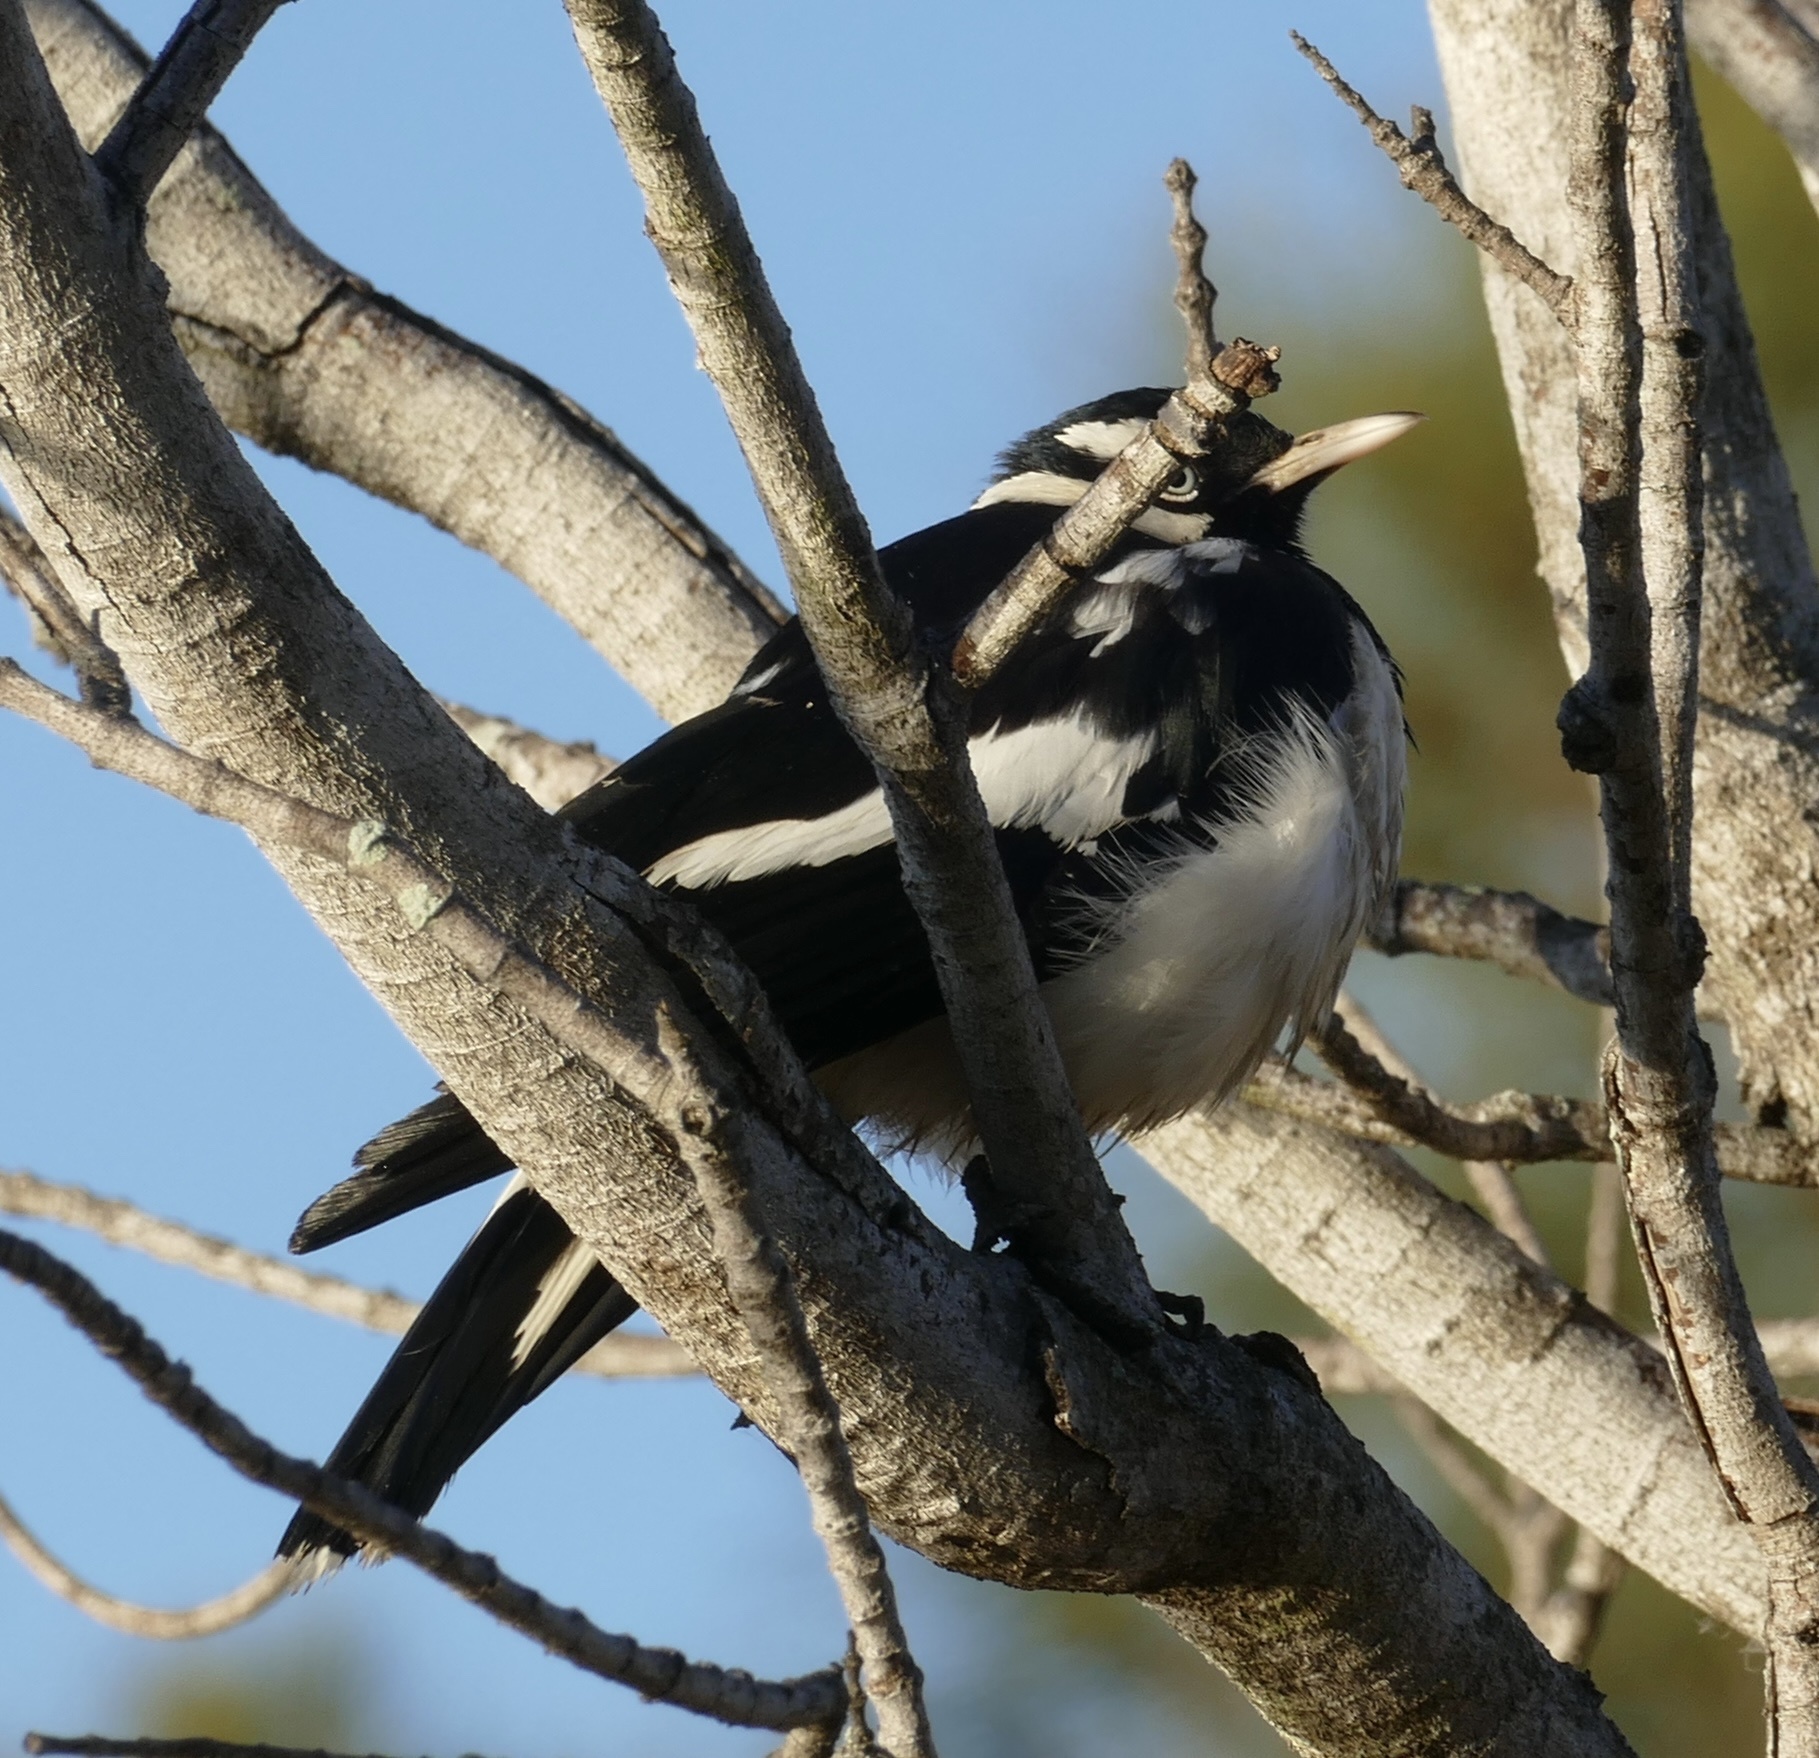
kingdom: Animalia
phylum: Chordata
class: Aves
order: Passeriformes
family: Monarchidae
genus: Grallina
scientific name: Grallina cyanoleuca
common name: Magpie-lark
